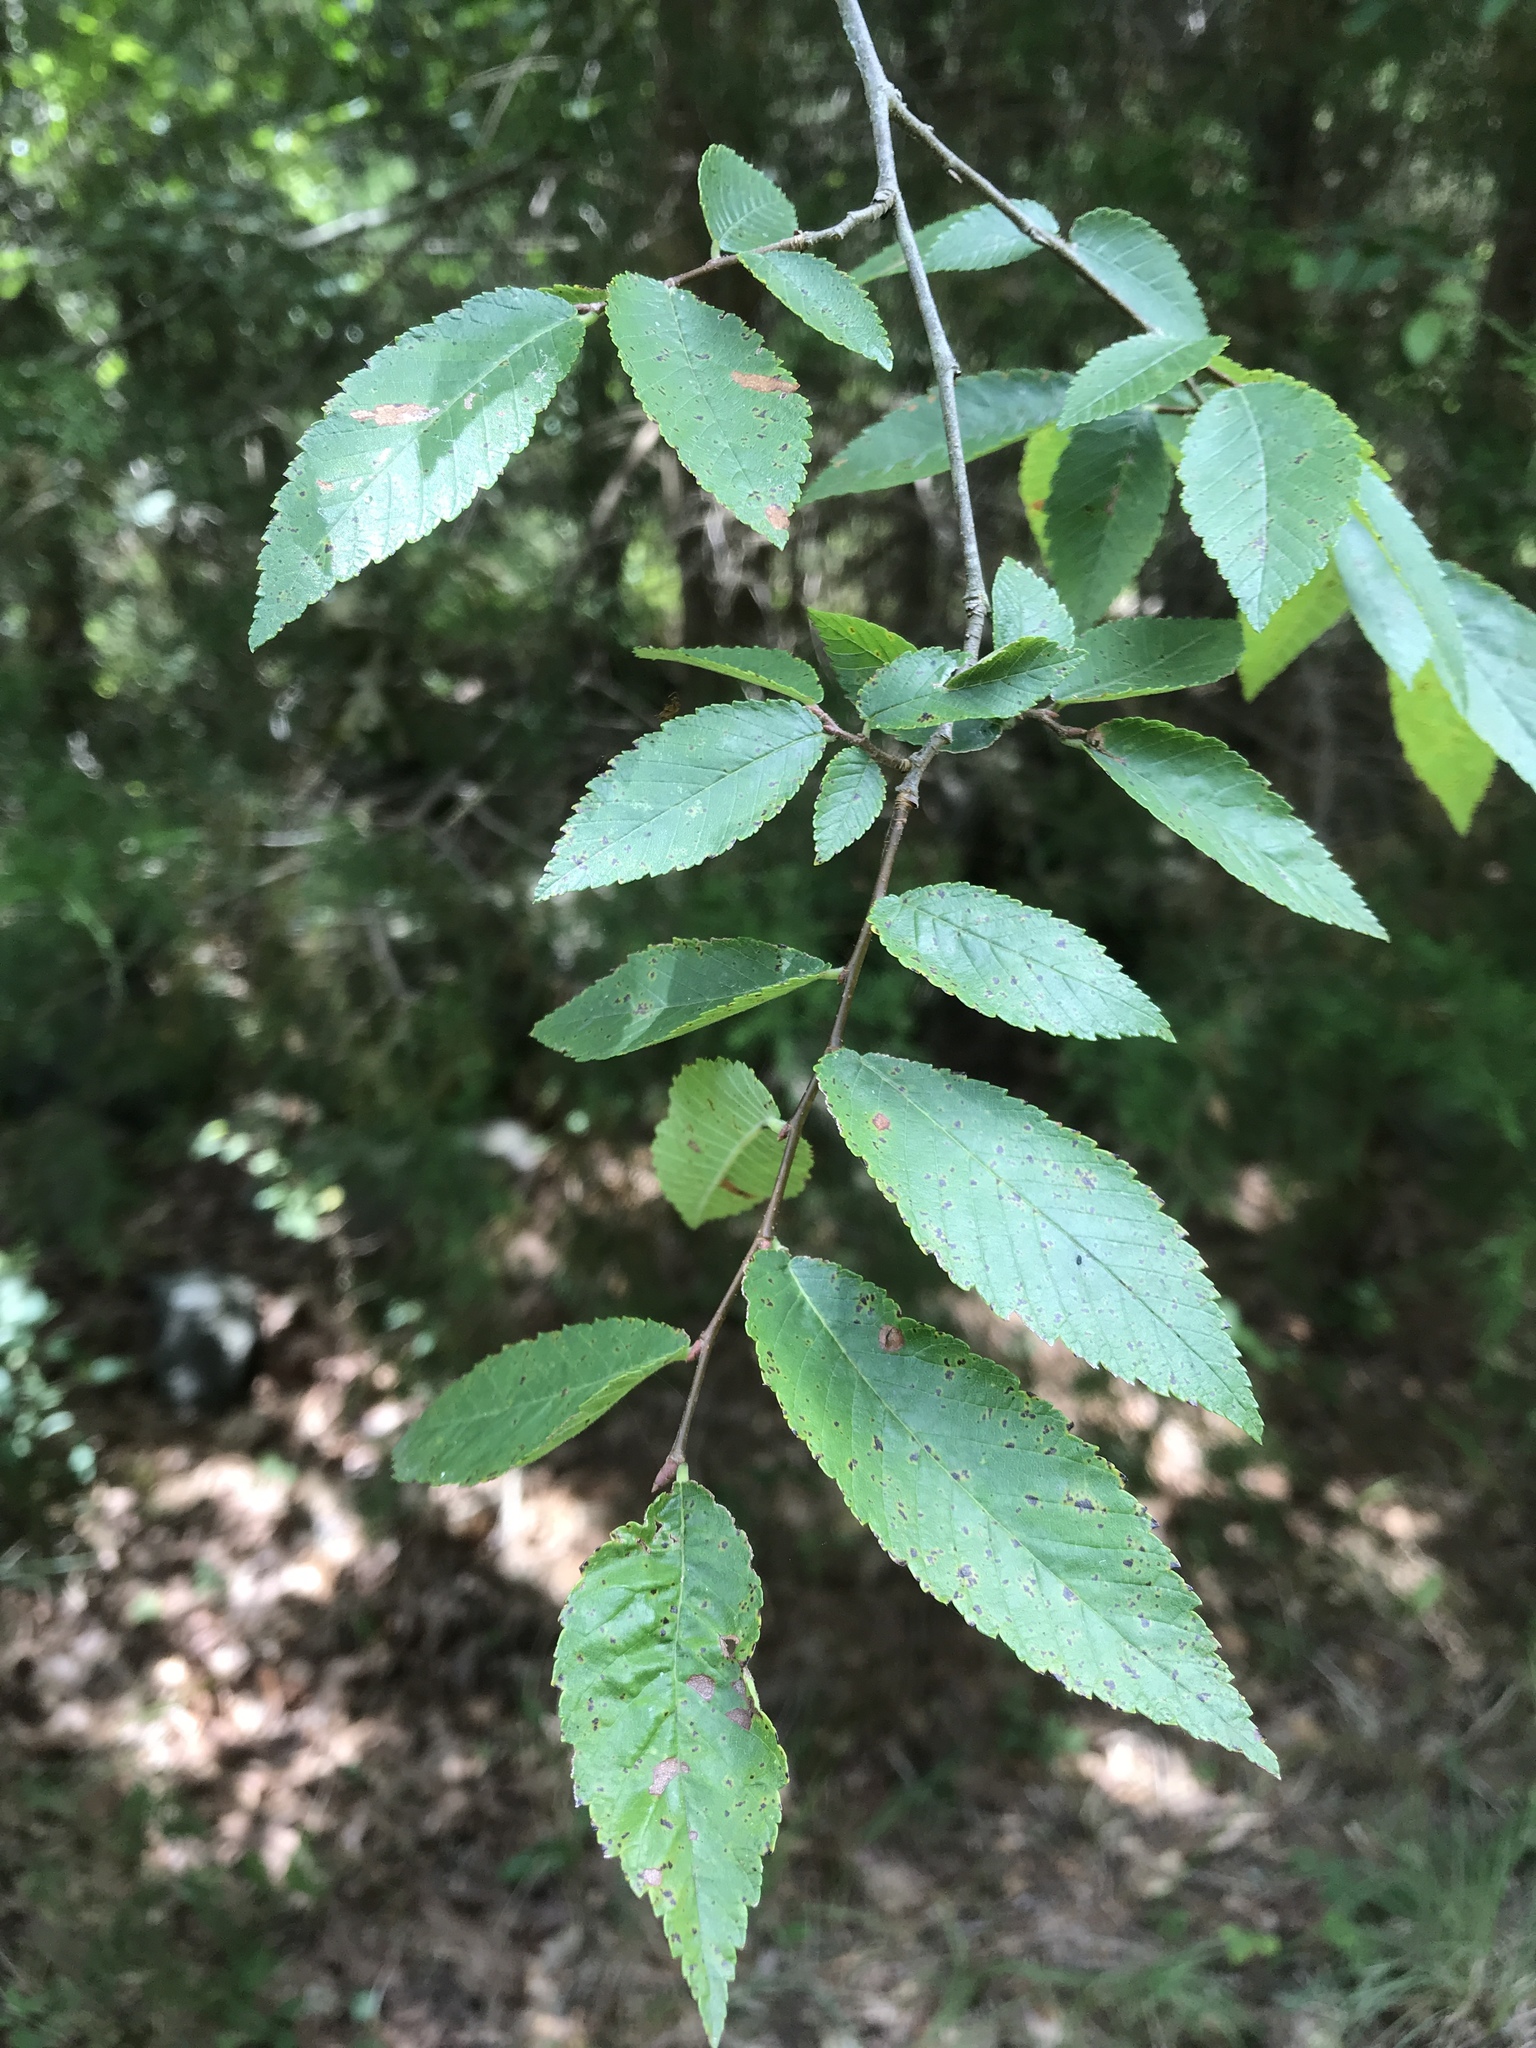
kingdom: Plantae
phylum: Tracheophyta
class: Magnoliopsida
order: Rosales
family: Ulmaceae
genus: Ulmus
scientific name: Ulmus alata
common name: Winged elm
